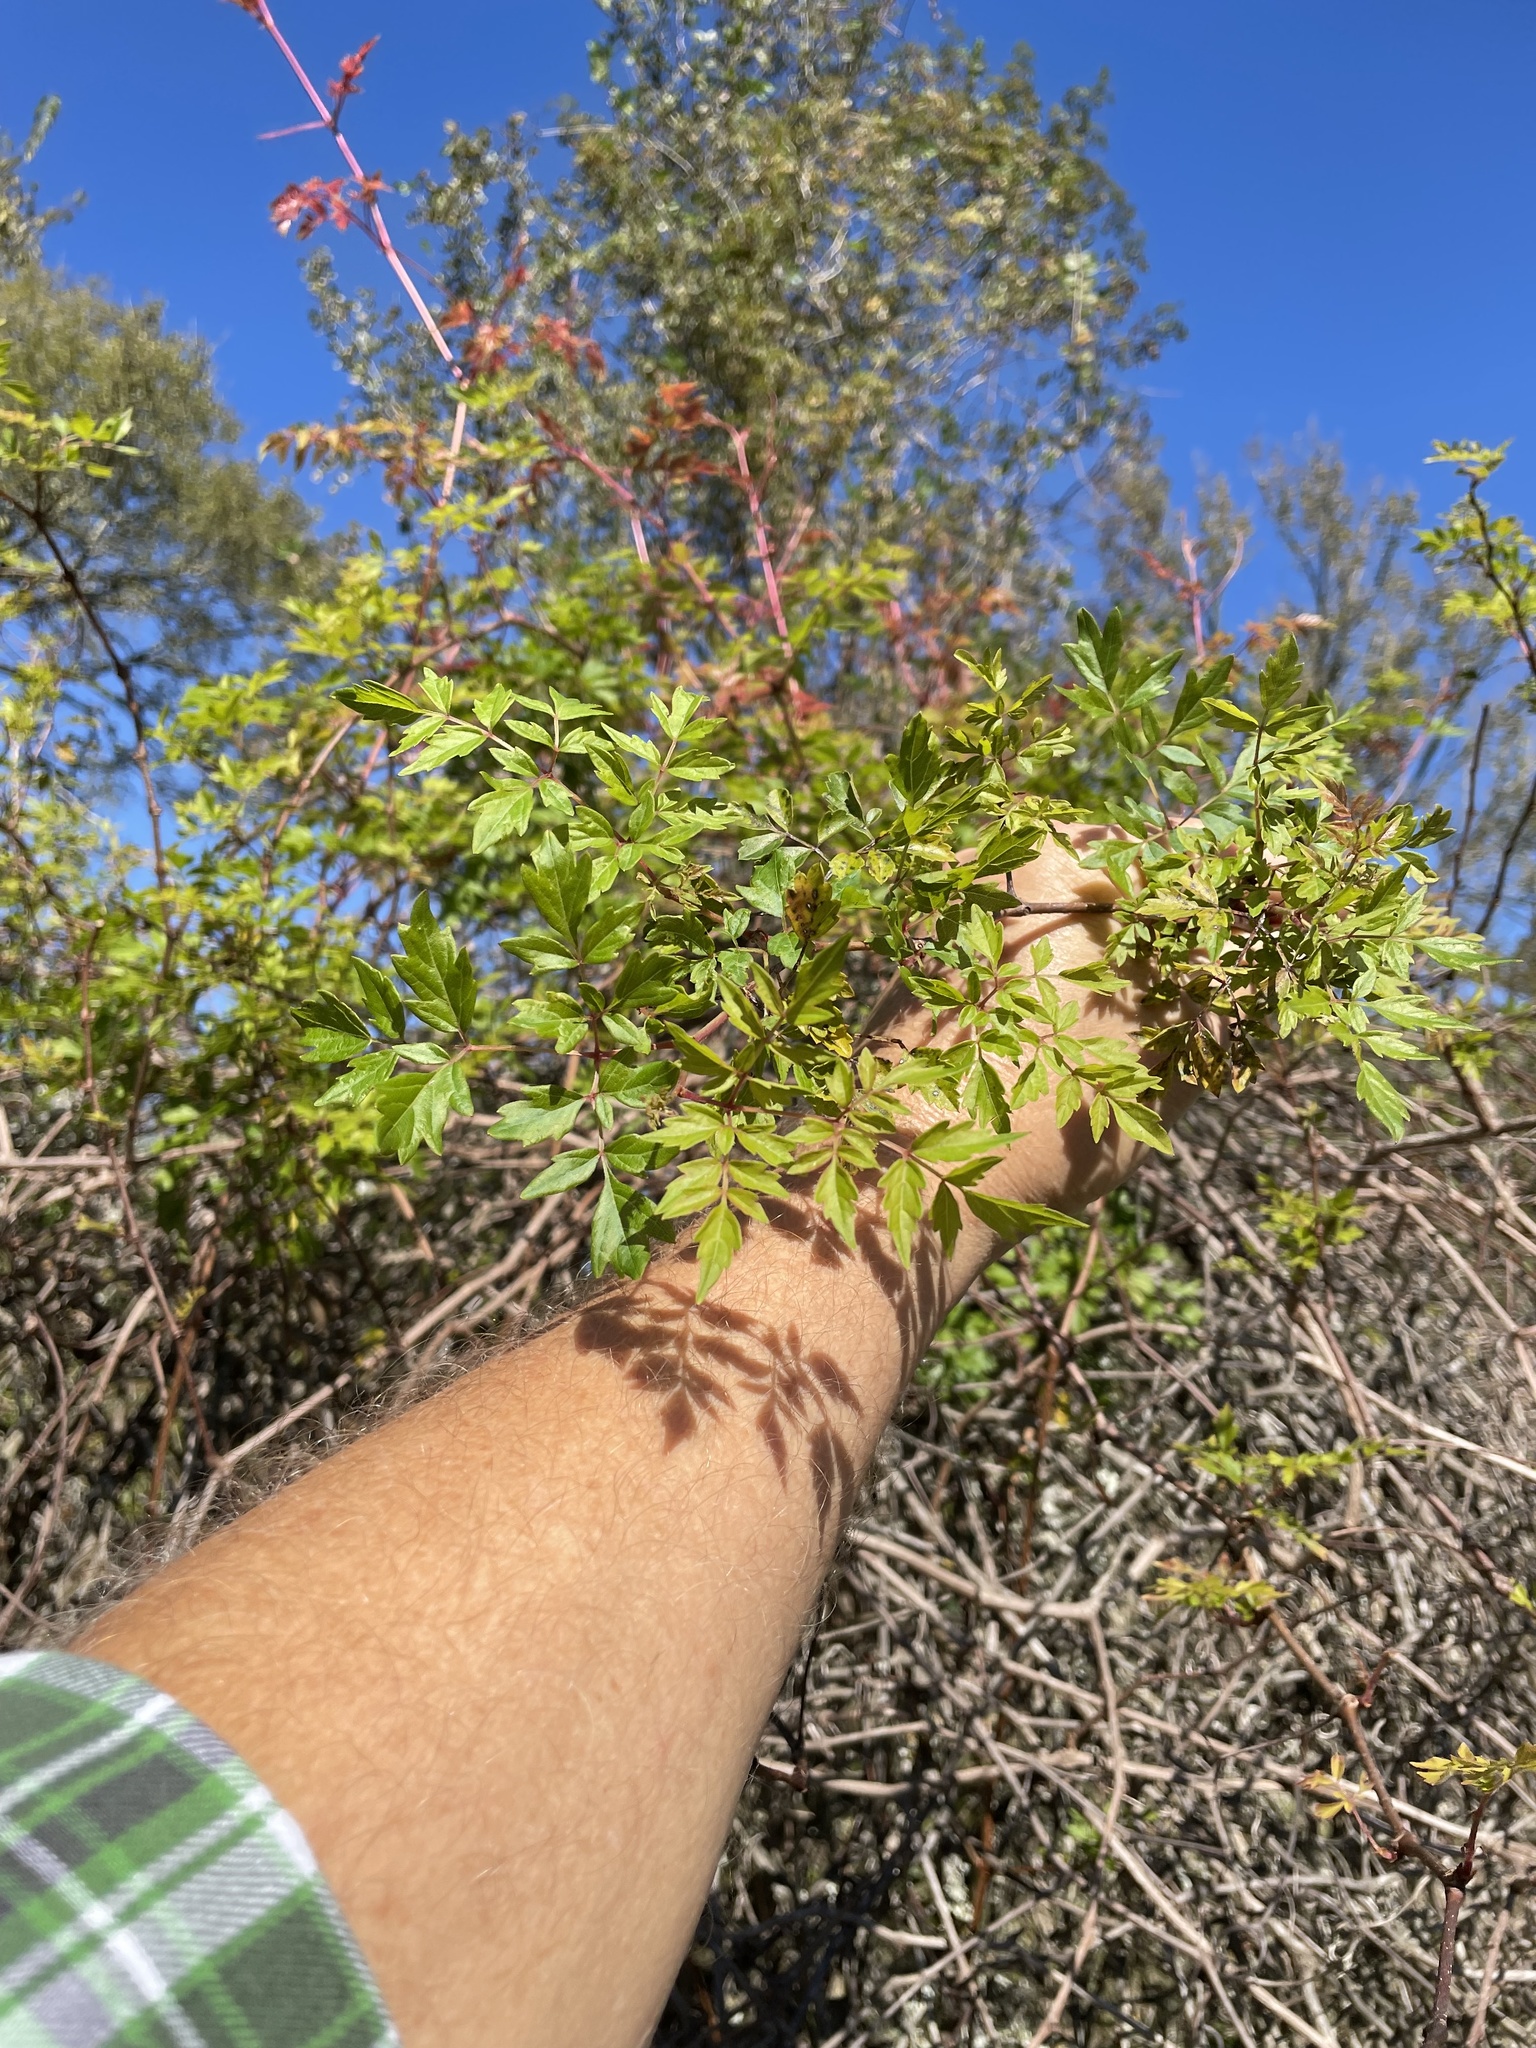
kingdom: Plantae
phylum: Tracheophyta
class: Magnoliopsida
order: Vitales
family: Vitaceae
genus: Nekemias
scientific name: Nekemias arborea
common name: Peppervine
